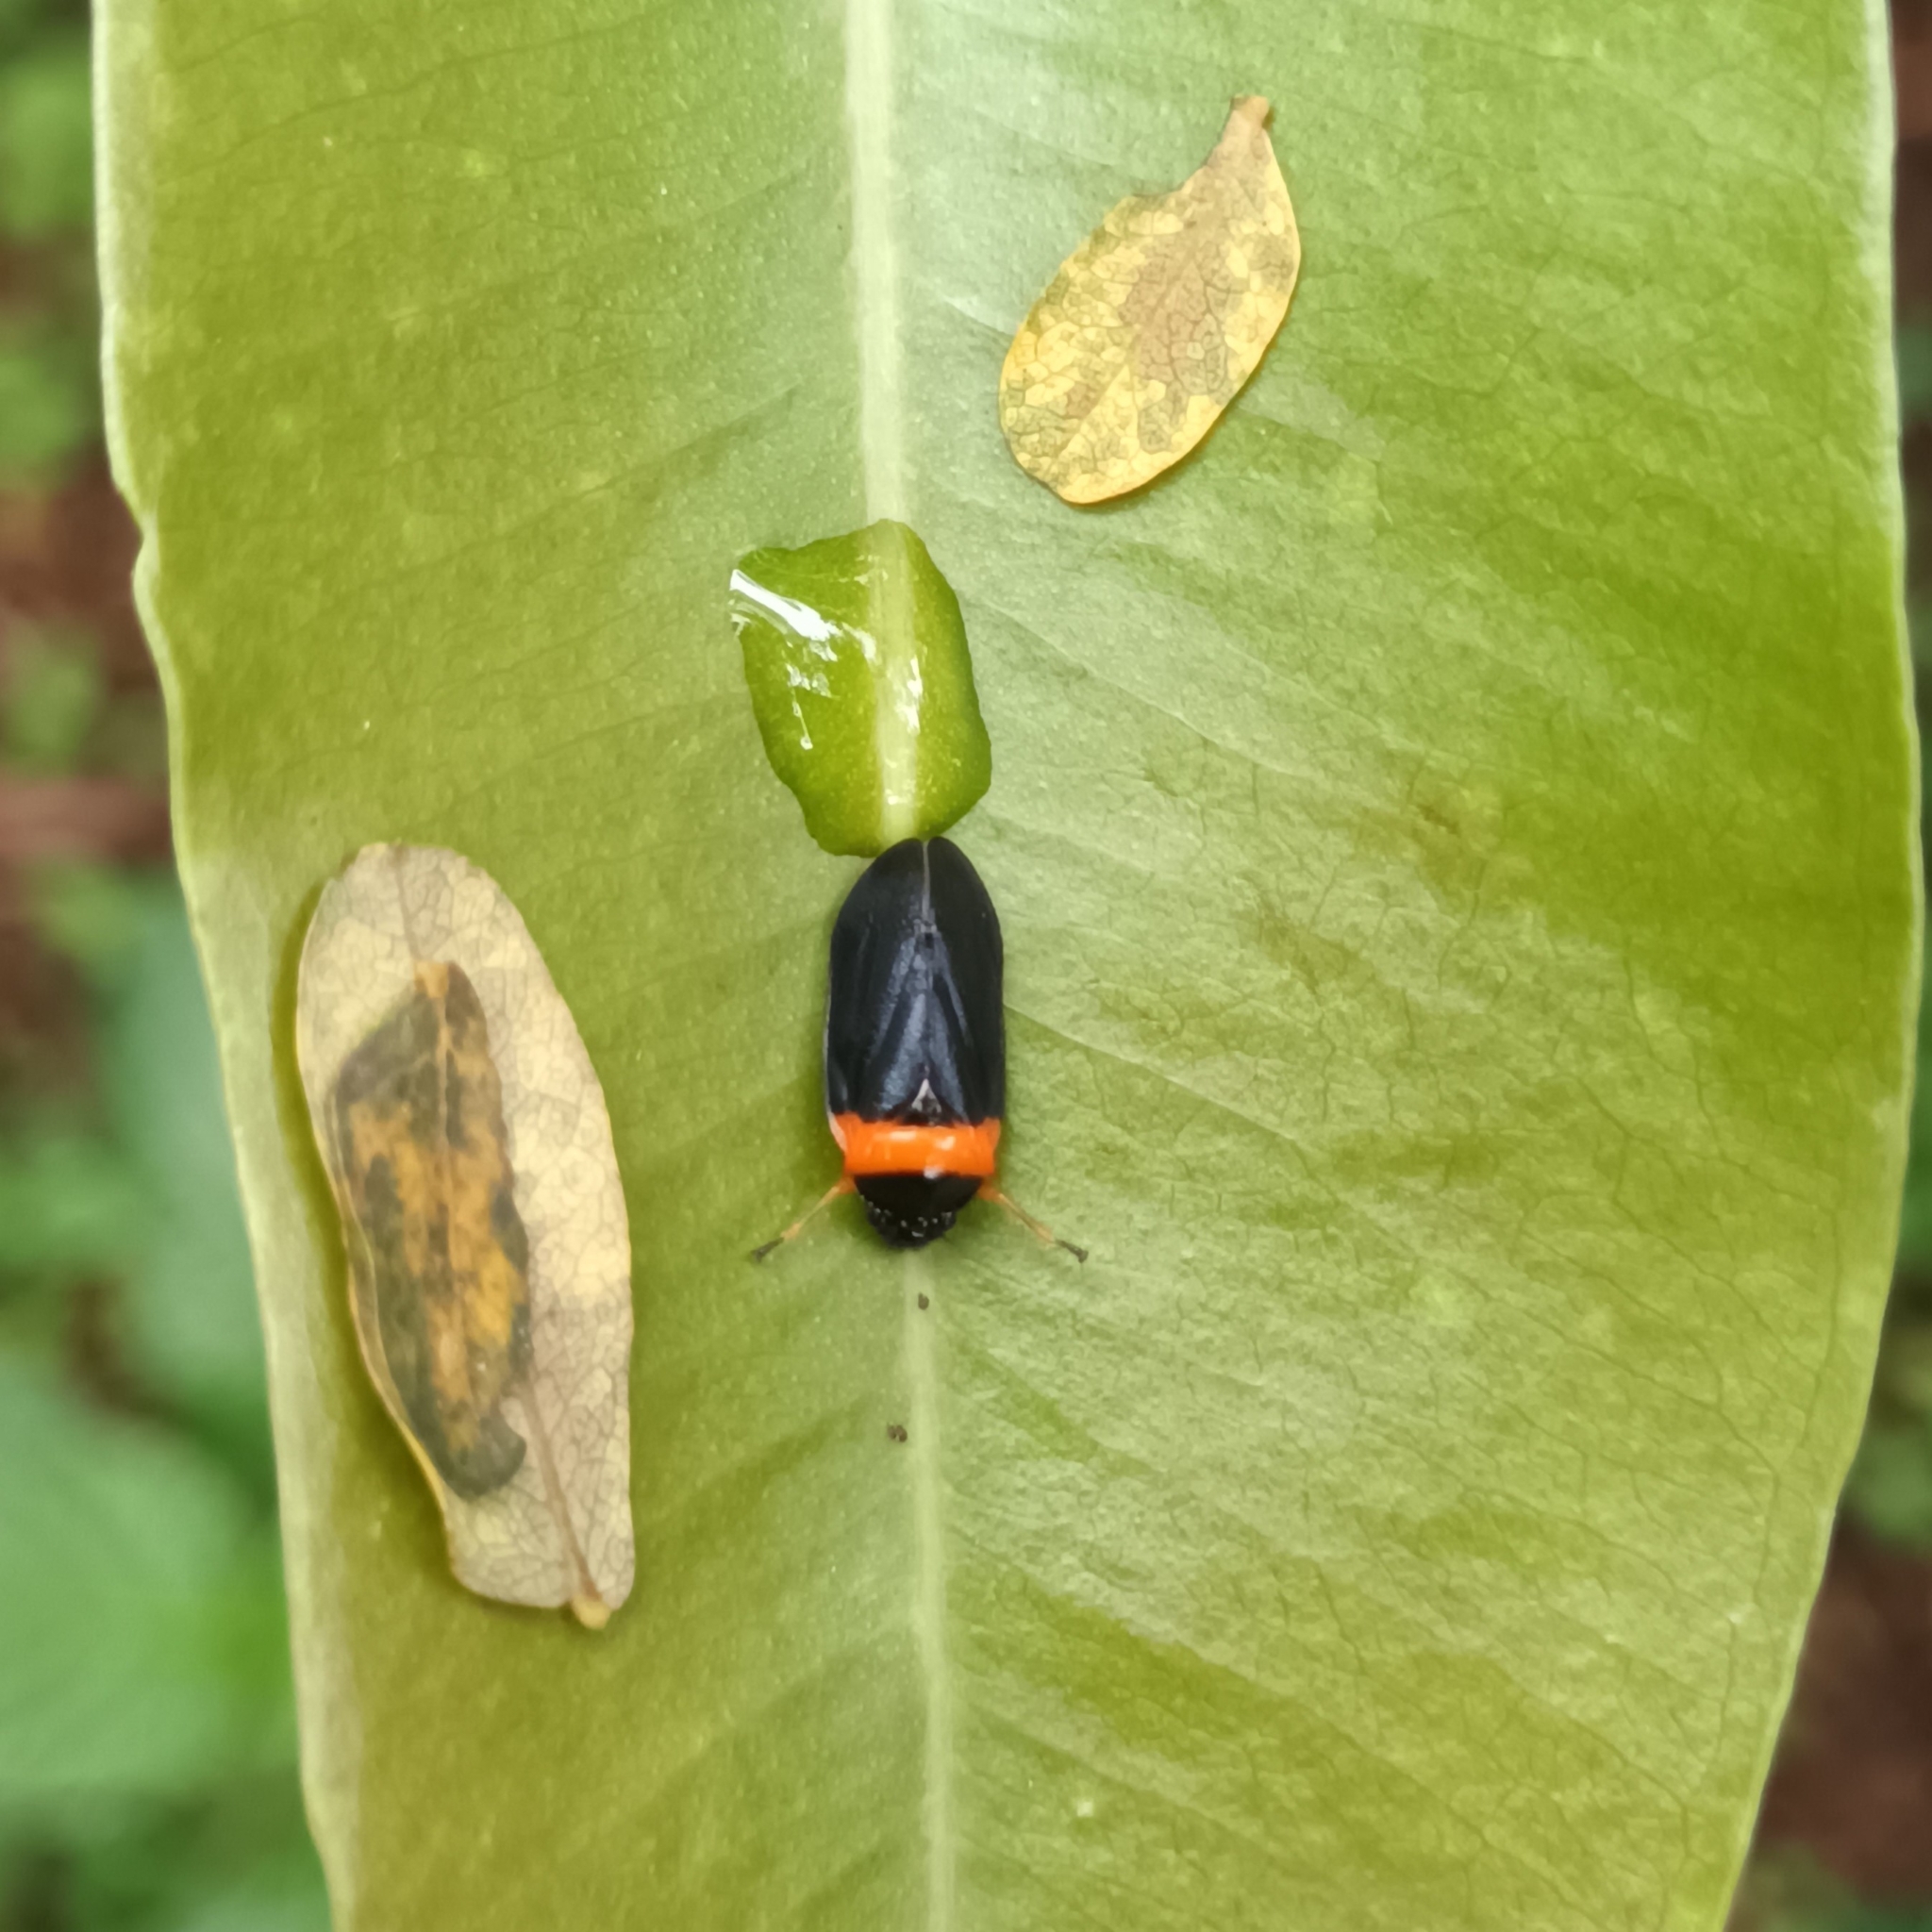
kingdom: Animalia
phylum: Arthropoda
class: Insecta
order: Hemiptera
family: Cercopidae
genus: Phymatostetha
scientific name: Phymatostetha deschampsi
